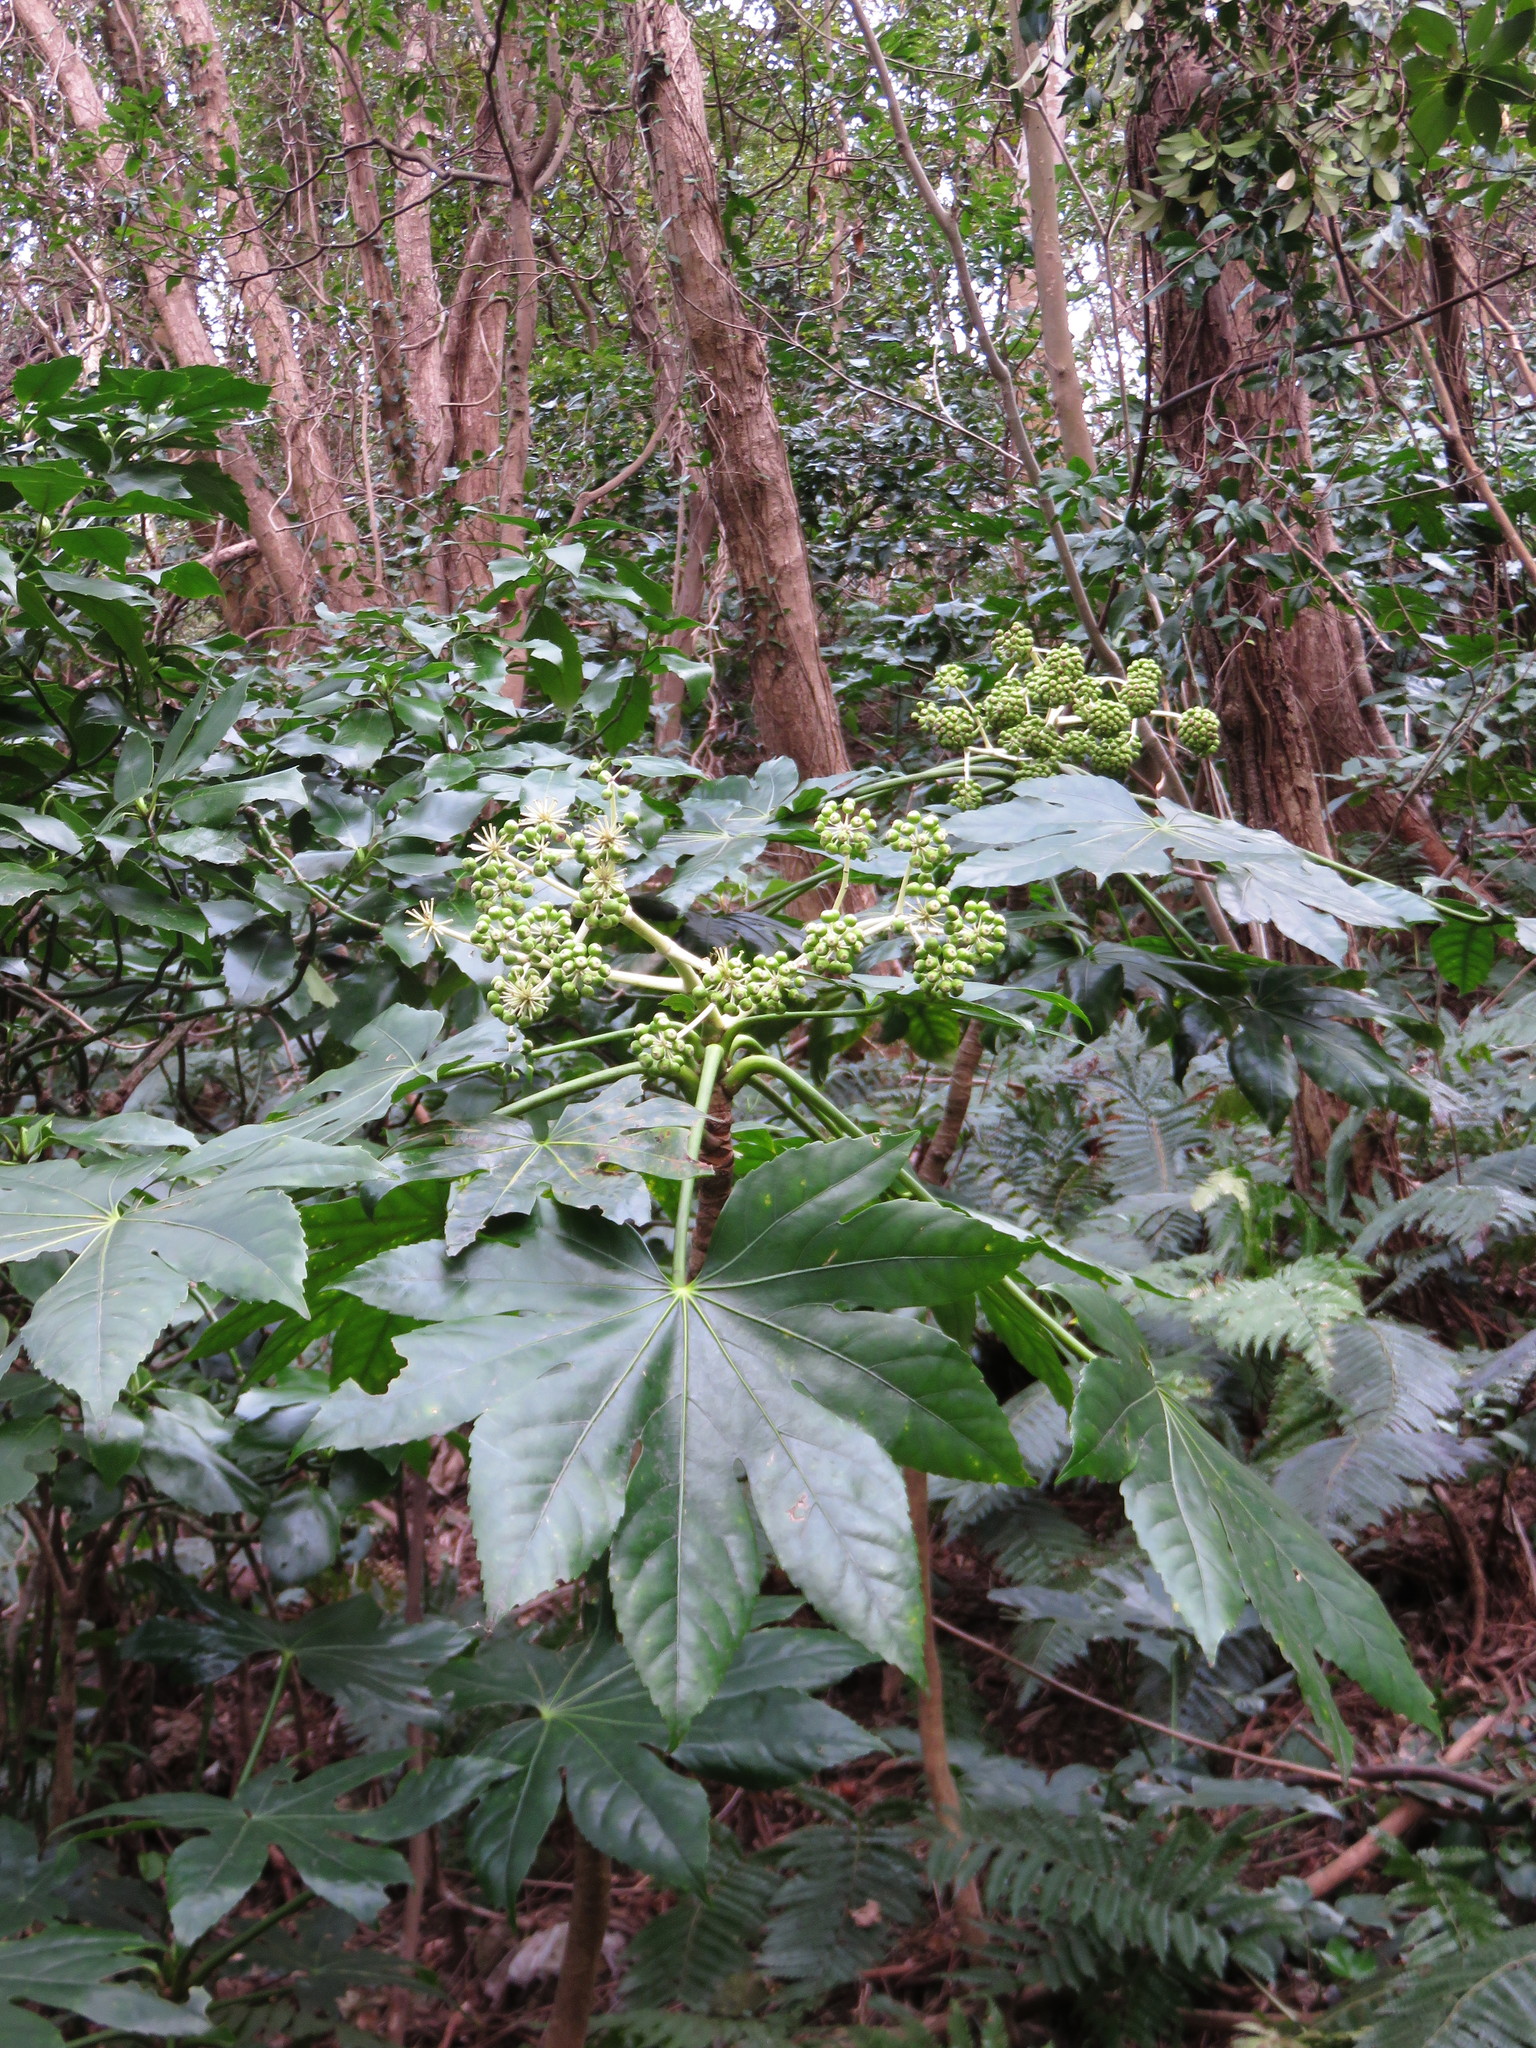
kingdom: Plantae
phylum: Tracheophyta
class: Magnoliopsida
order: Apiales
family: Araliaceae
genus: Fatsia
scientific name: Fatsia japonica
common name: Fatsia
